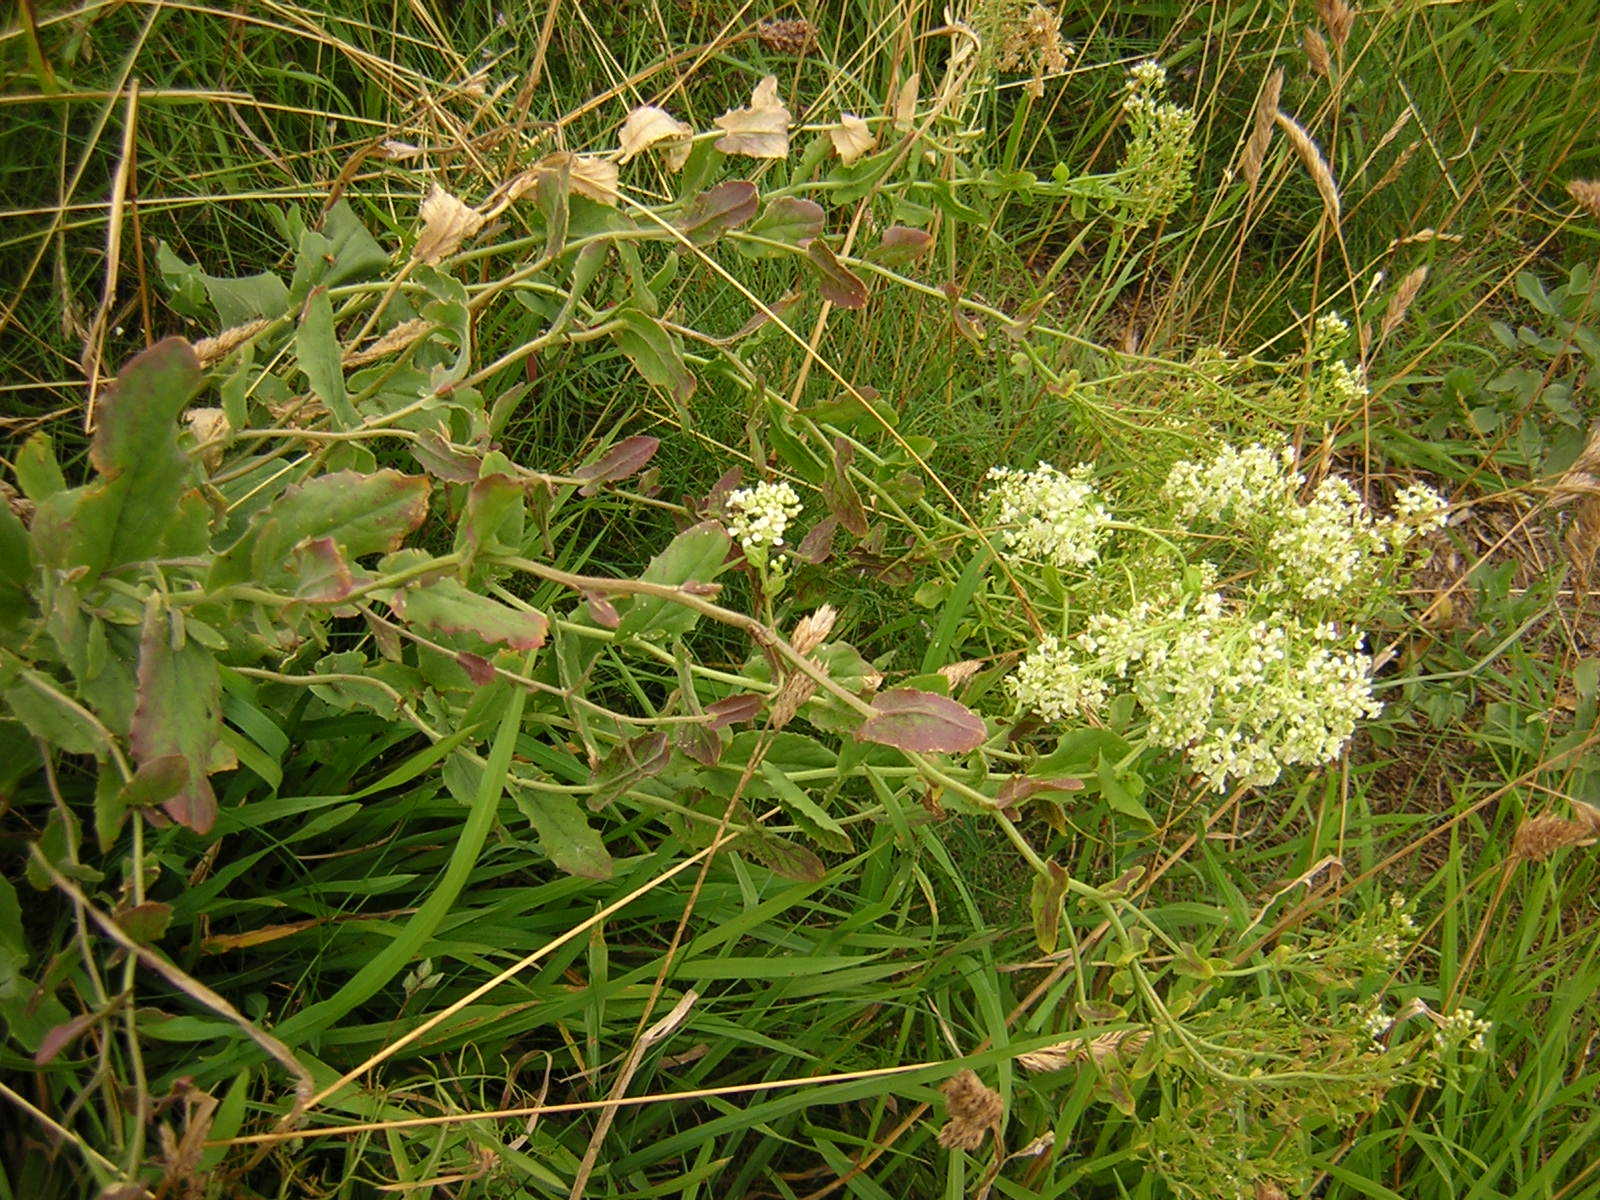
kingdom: Plantae
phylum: Tracheophyta
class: Magnoliopsida
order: Brassicales
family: Brassicaceae
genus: Lepidium
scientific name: Lepidium draba
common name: Hoary cress
